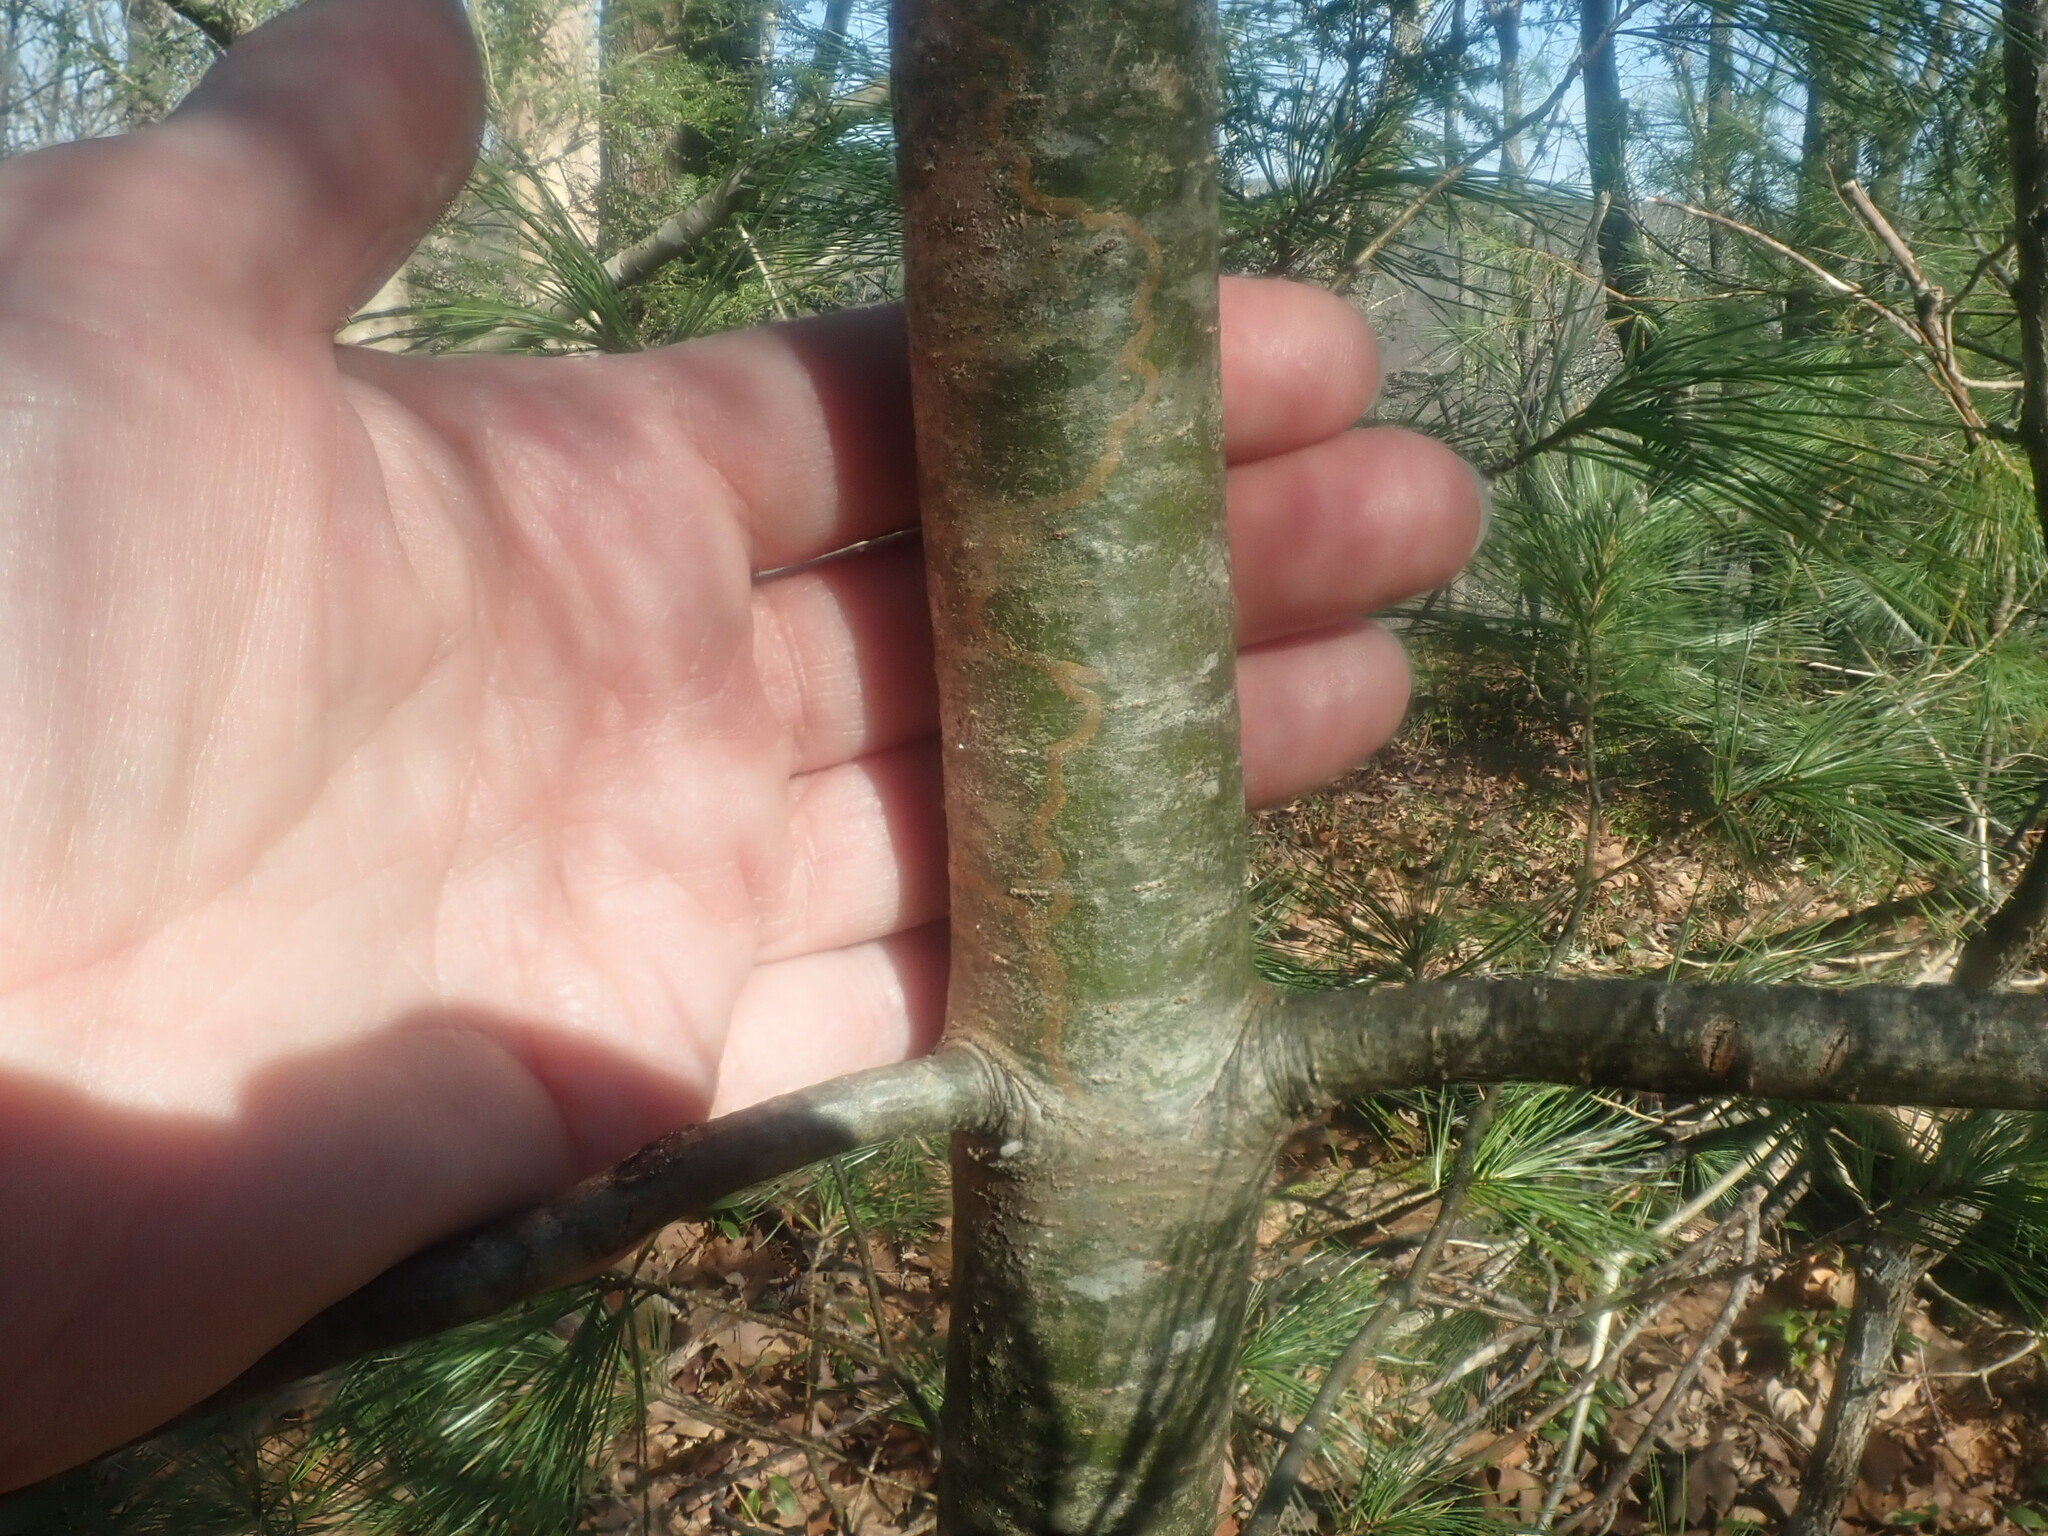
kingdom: Animalia
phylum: Arthropoda
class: Insecta
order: Lepidoptera
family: Gracillariidae
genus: Marmara
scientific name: Marmara fasciella
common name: White pine barkminer moth
